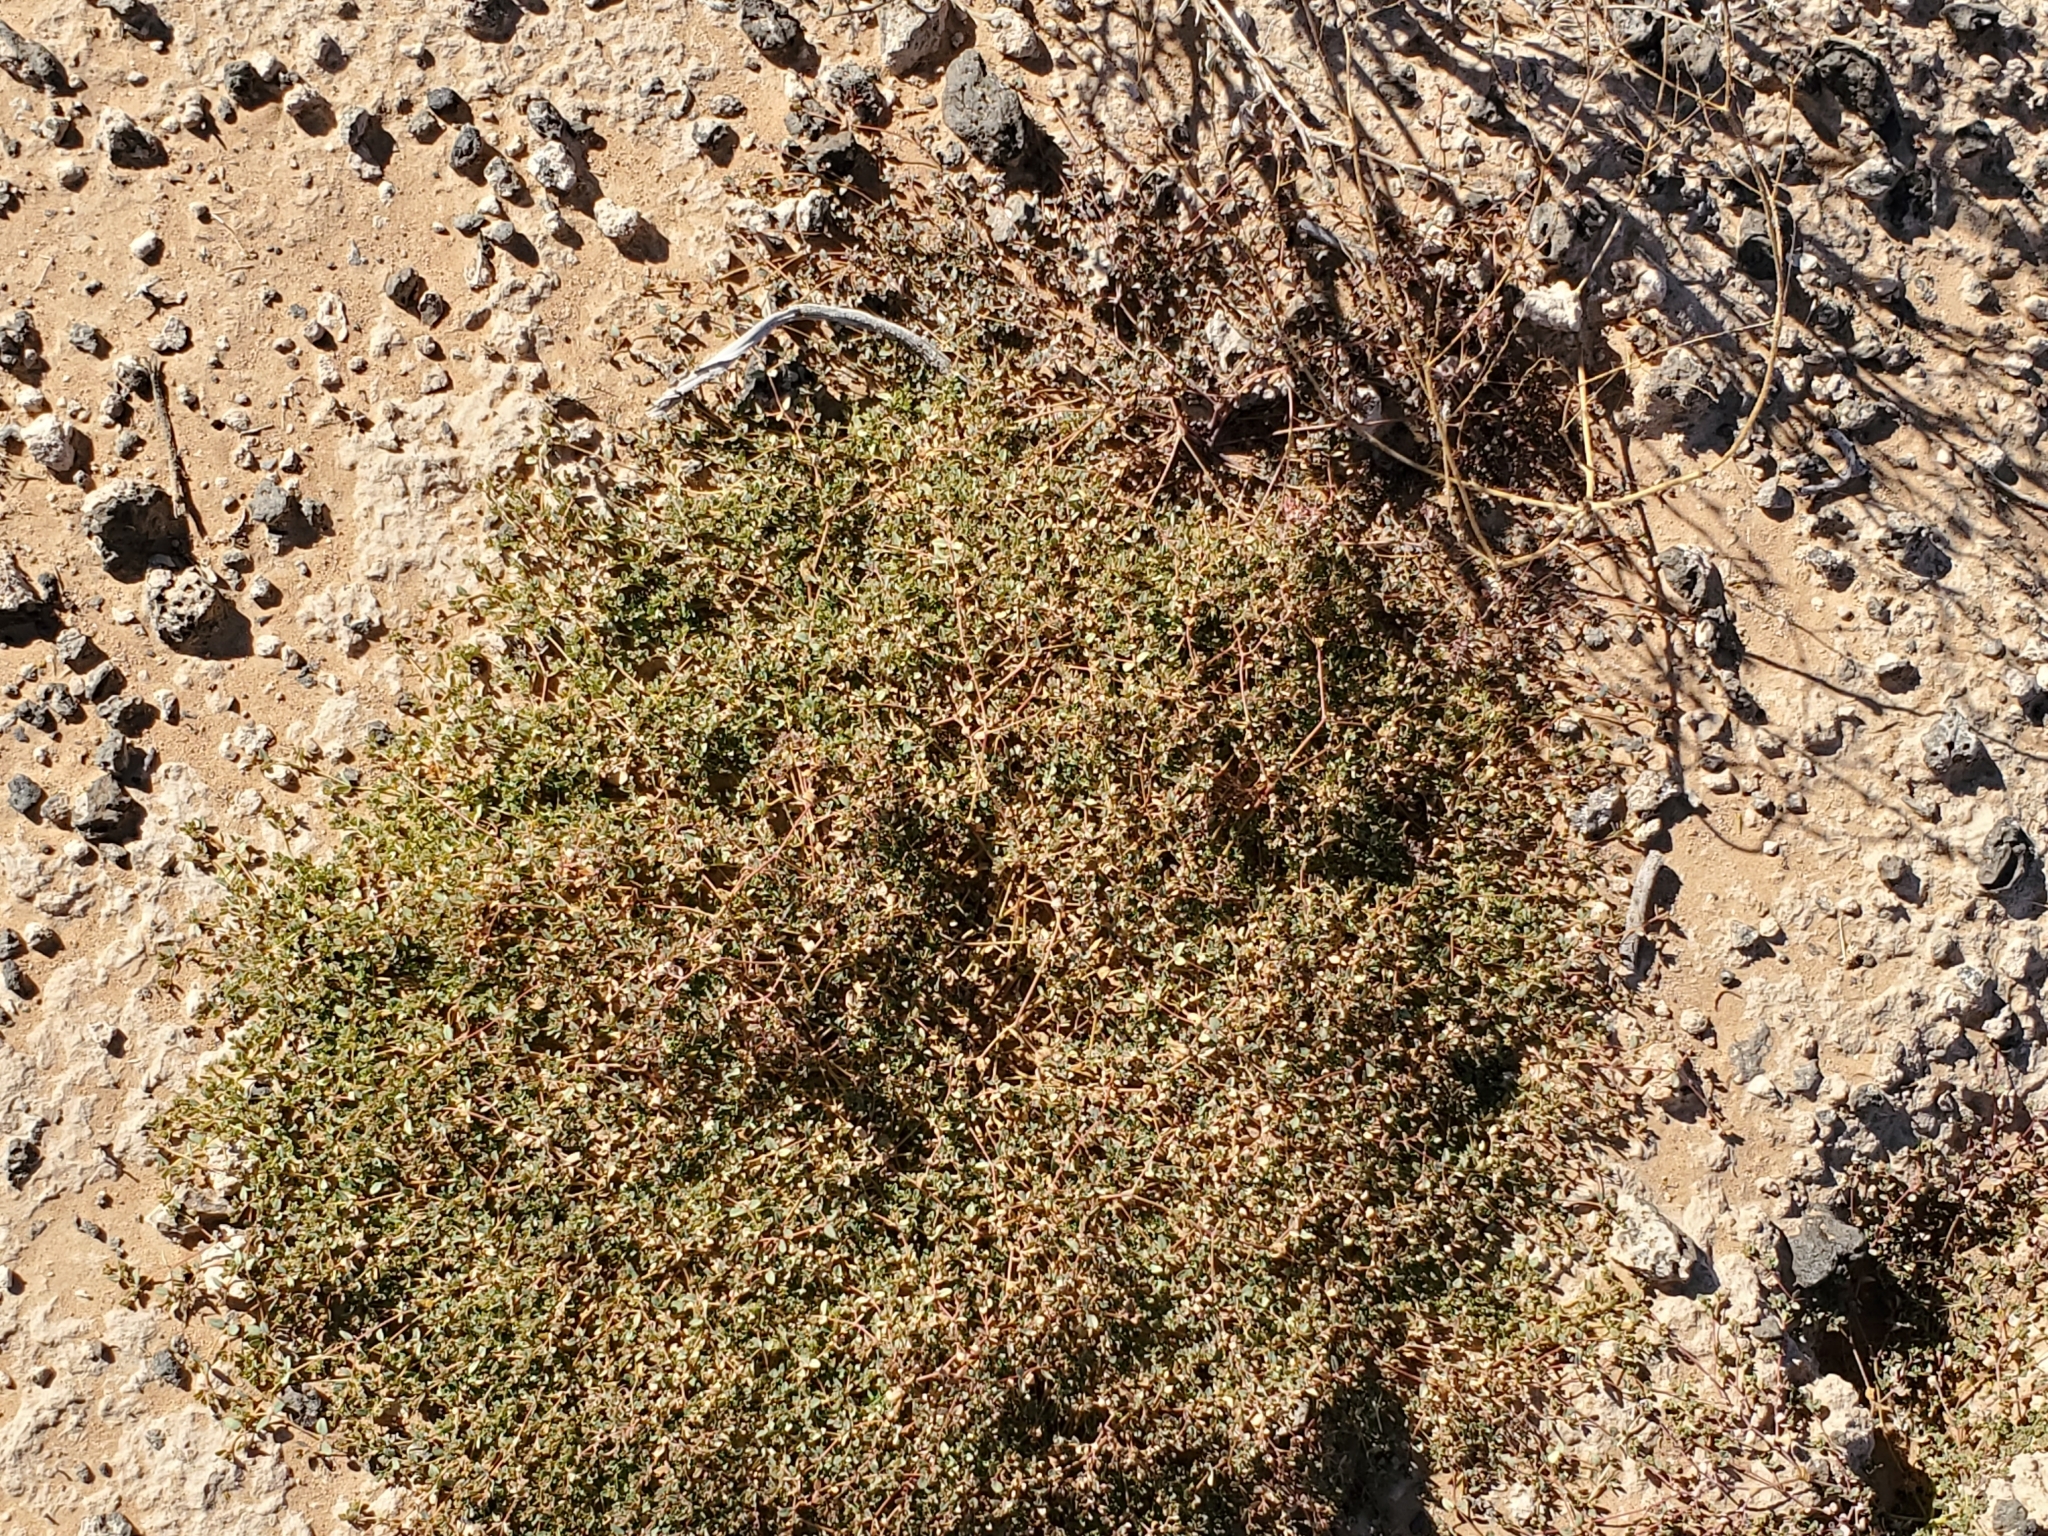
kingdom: Plantae
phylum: Tracheophyta
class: Magnoliopsida
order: Malpighiales
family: Euphorbiaceae
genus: Euphorbia
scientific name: Euphorbia polycarpa
